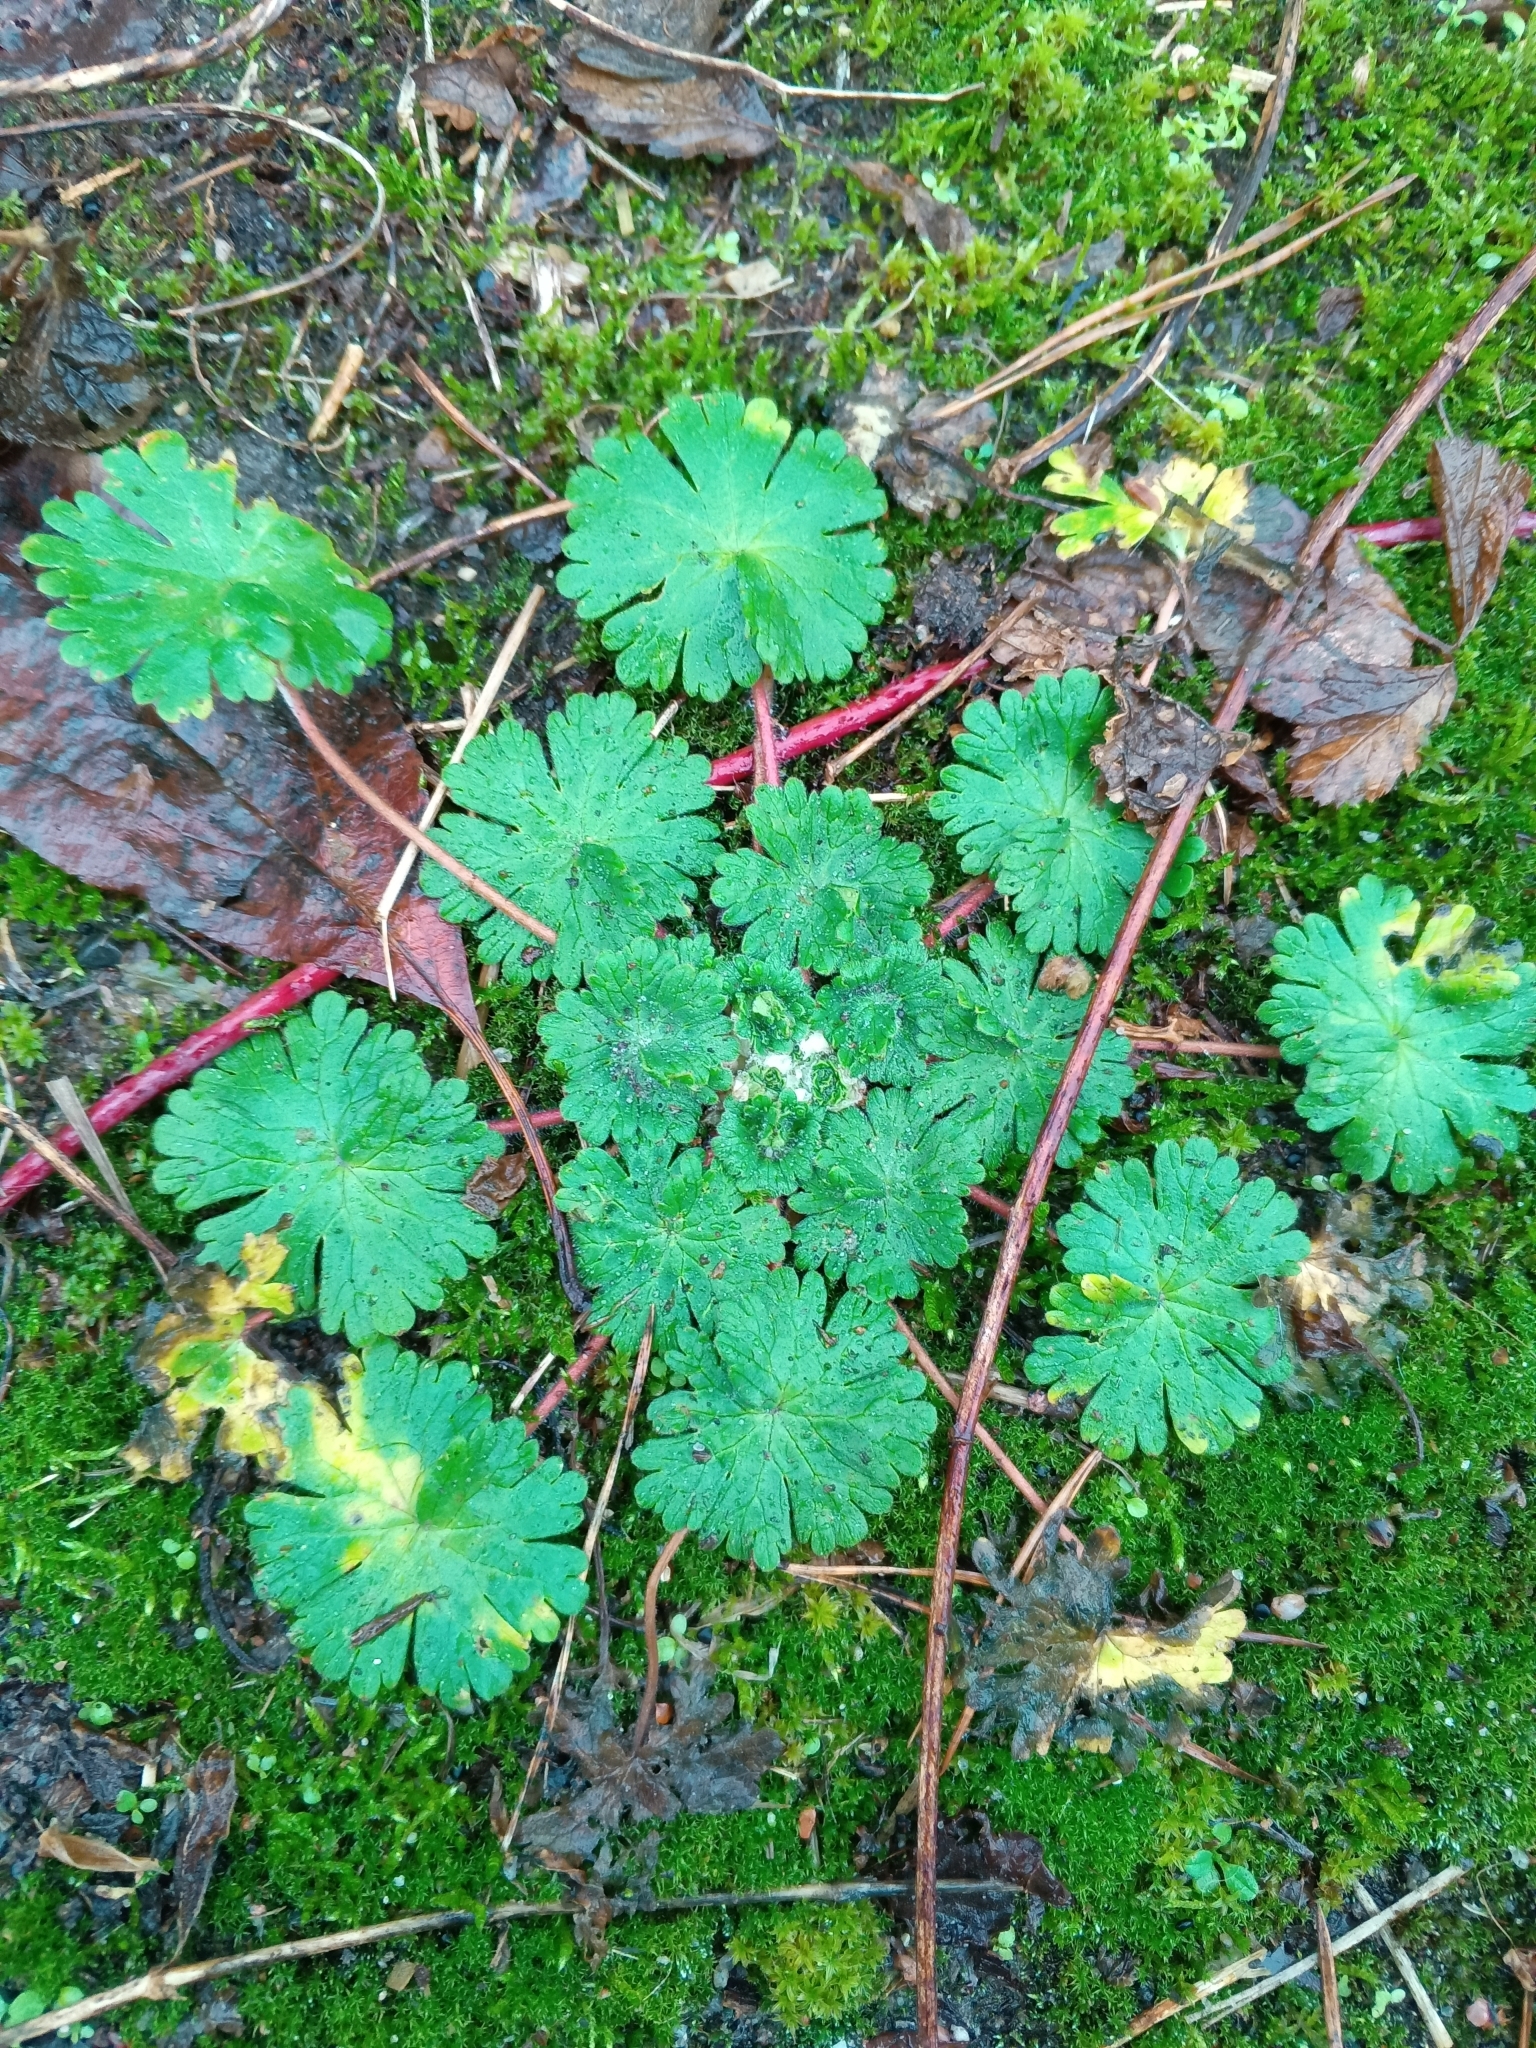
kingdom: Plantae
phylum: Tracheophyta
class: Magnoliopsida
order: Geraniales
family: Geraniaceae
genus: Geranium
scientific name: Geranium pusillum
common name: Small geranium
